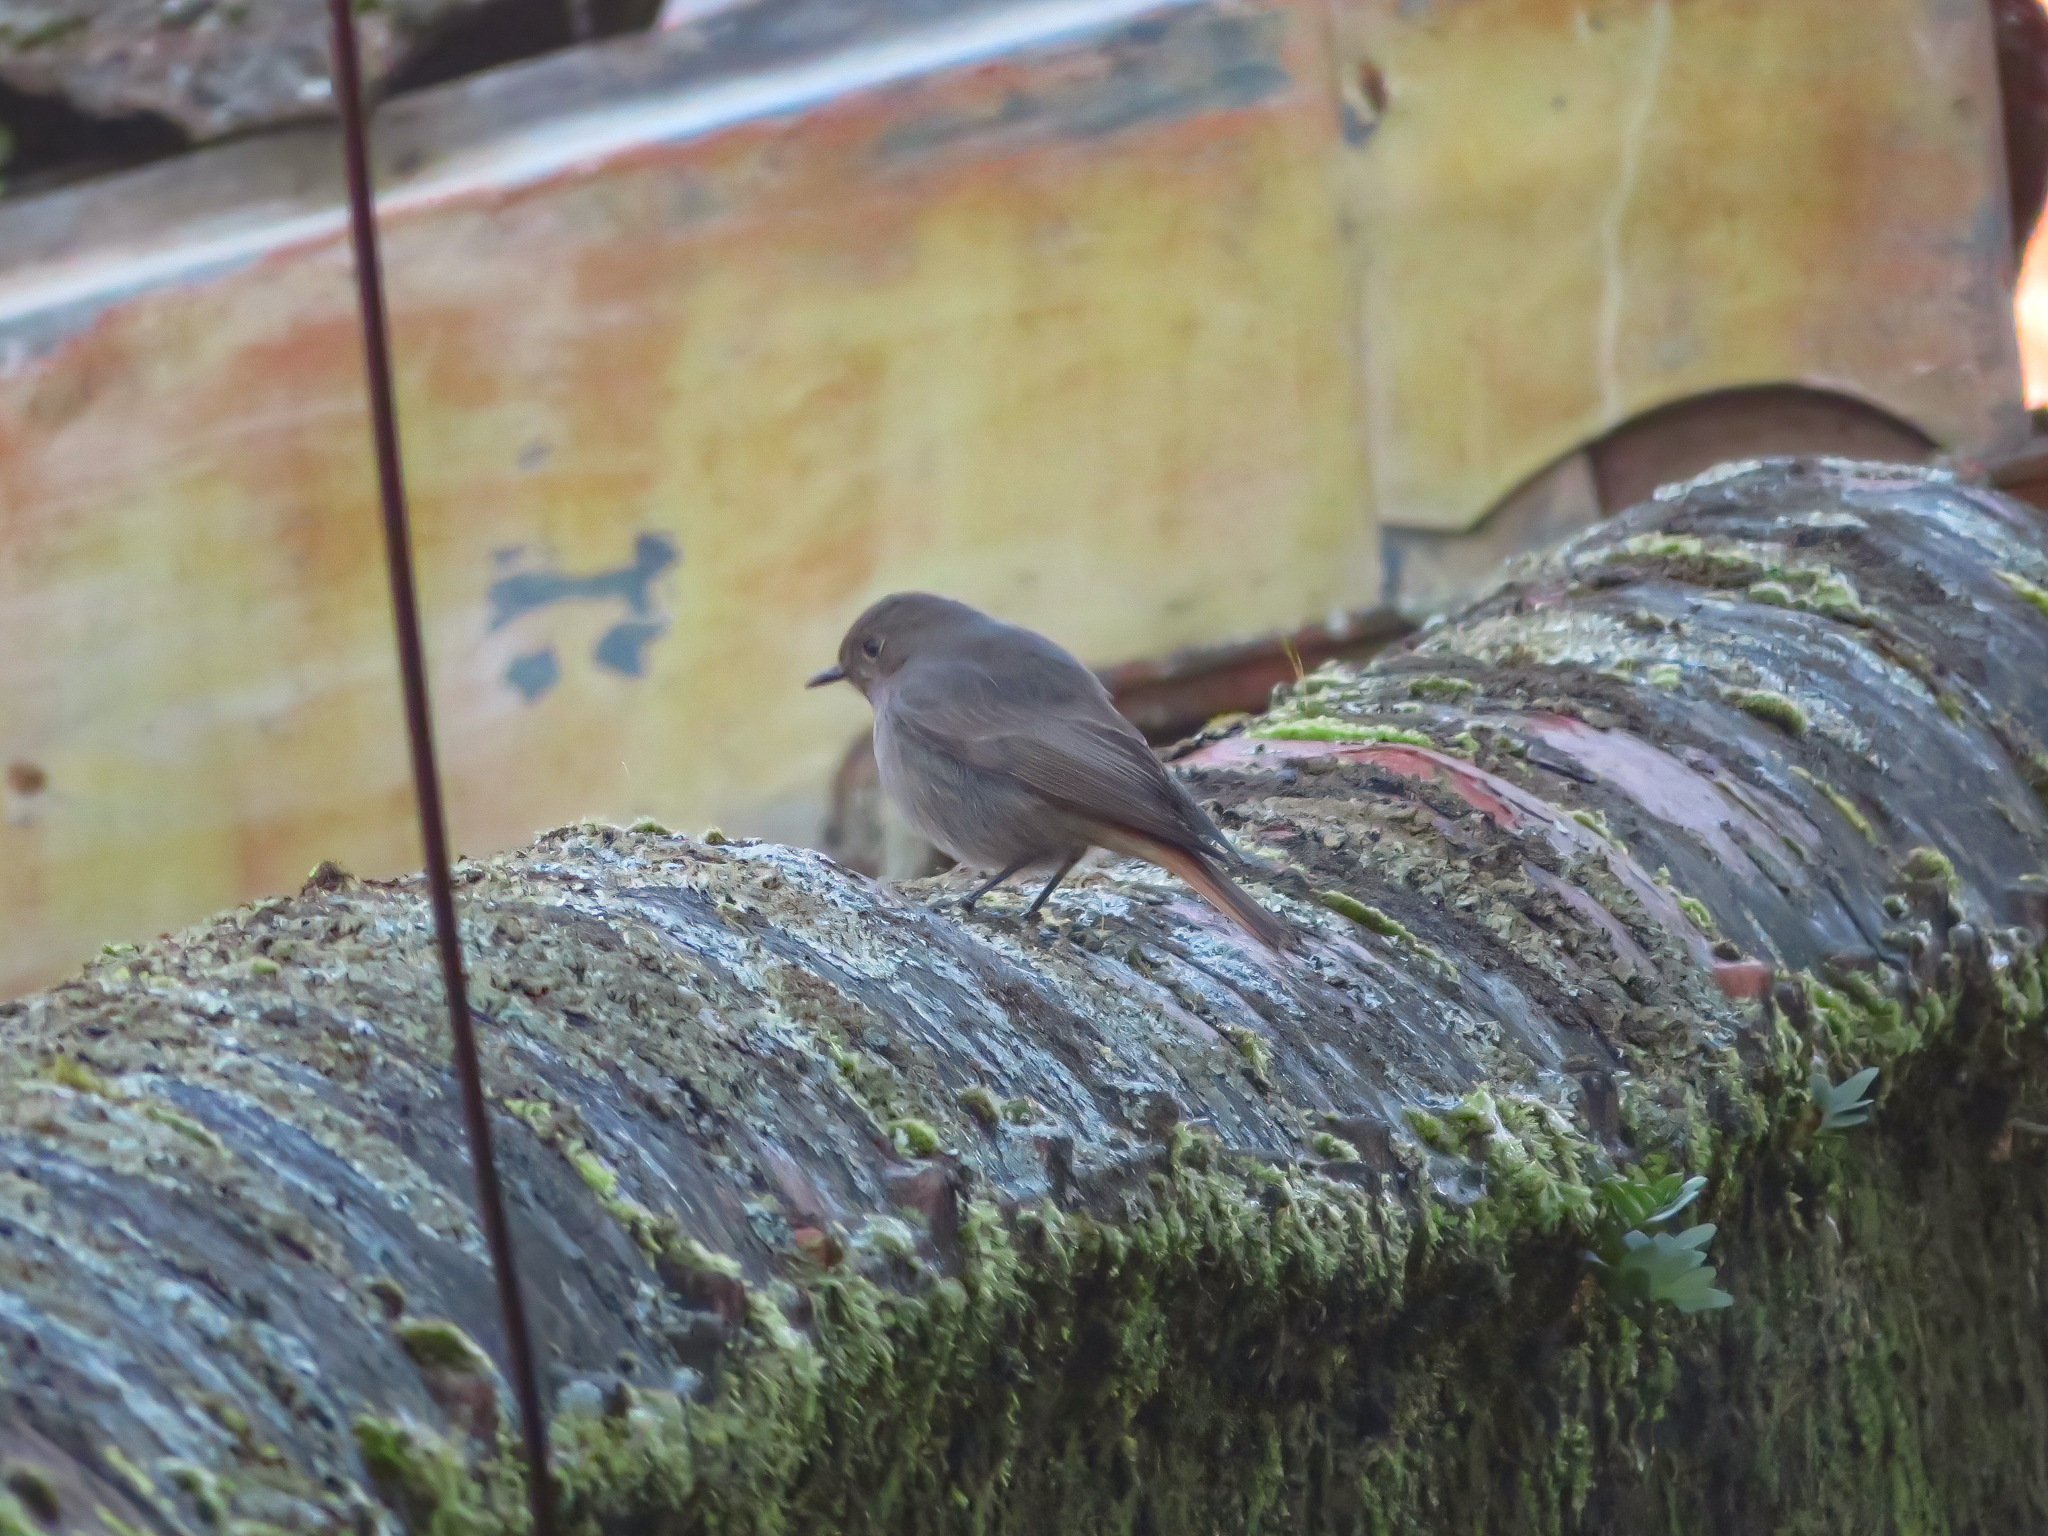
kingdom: Animalia
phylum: Chordata
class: Aves
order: Passeriformes
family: Muscicapidae
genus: Phoenicurus
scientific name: Phoenicurus ochruros
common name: Black redstart
